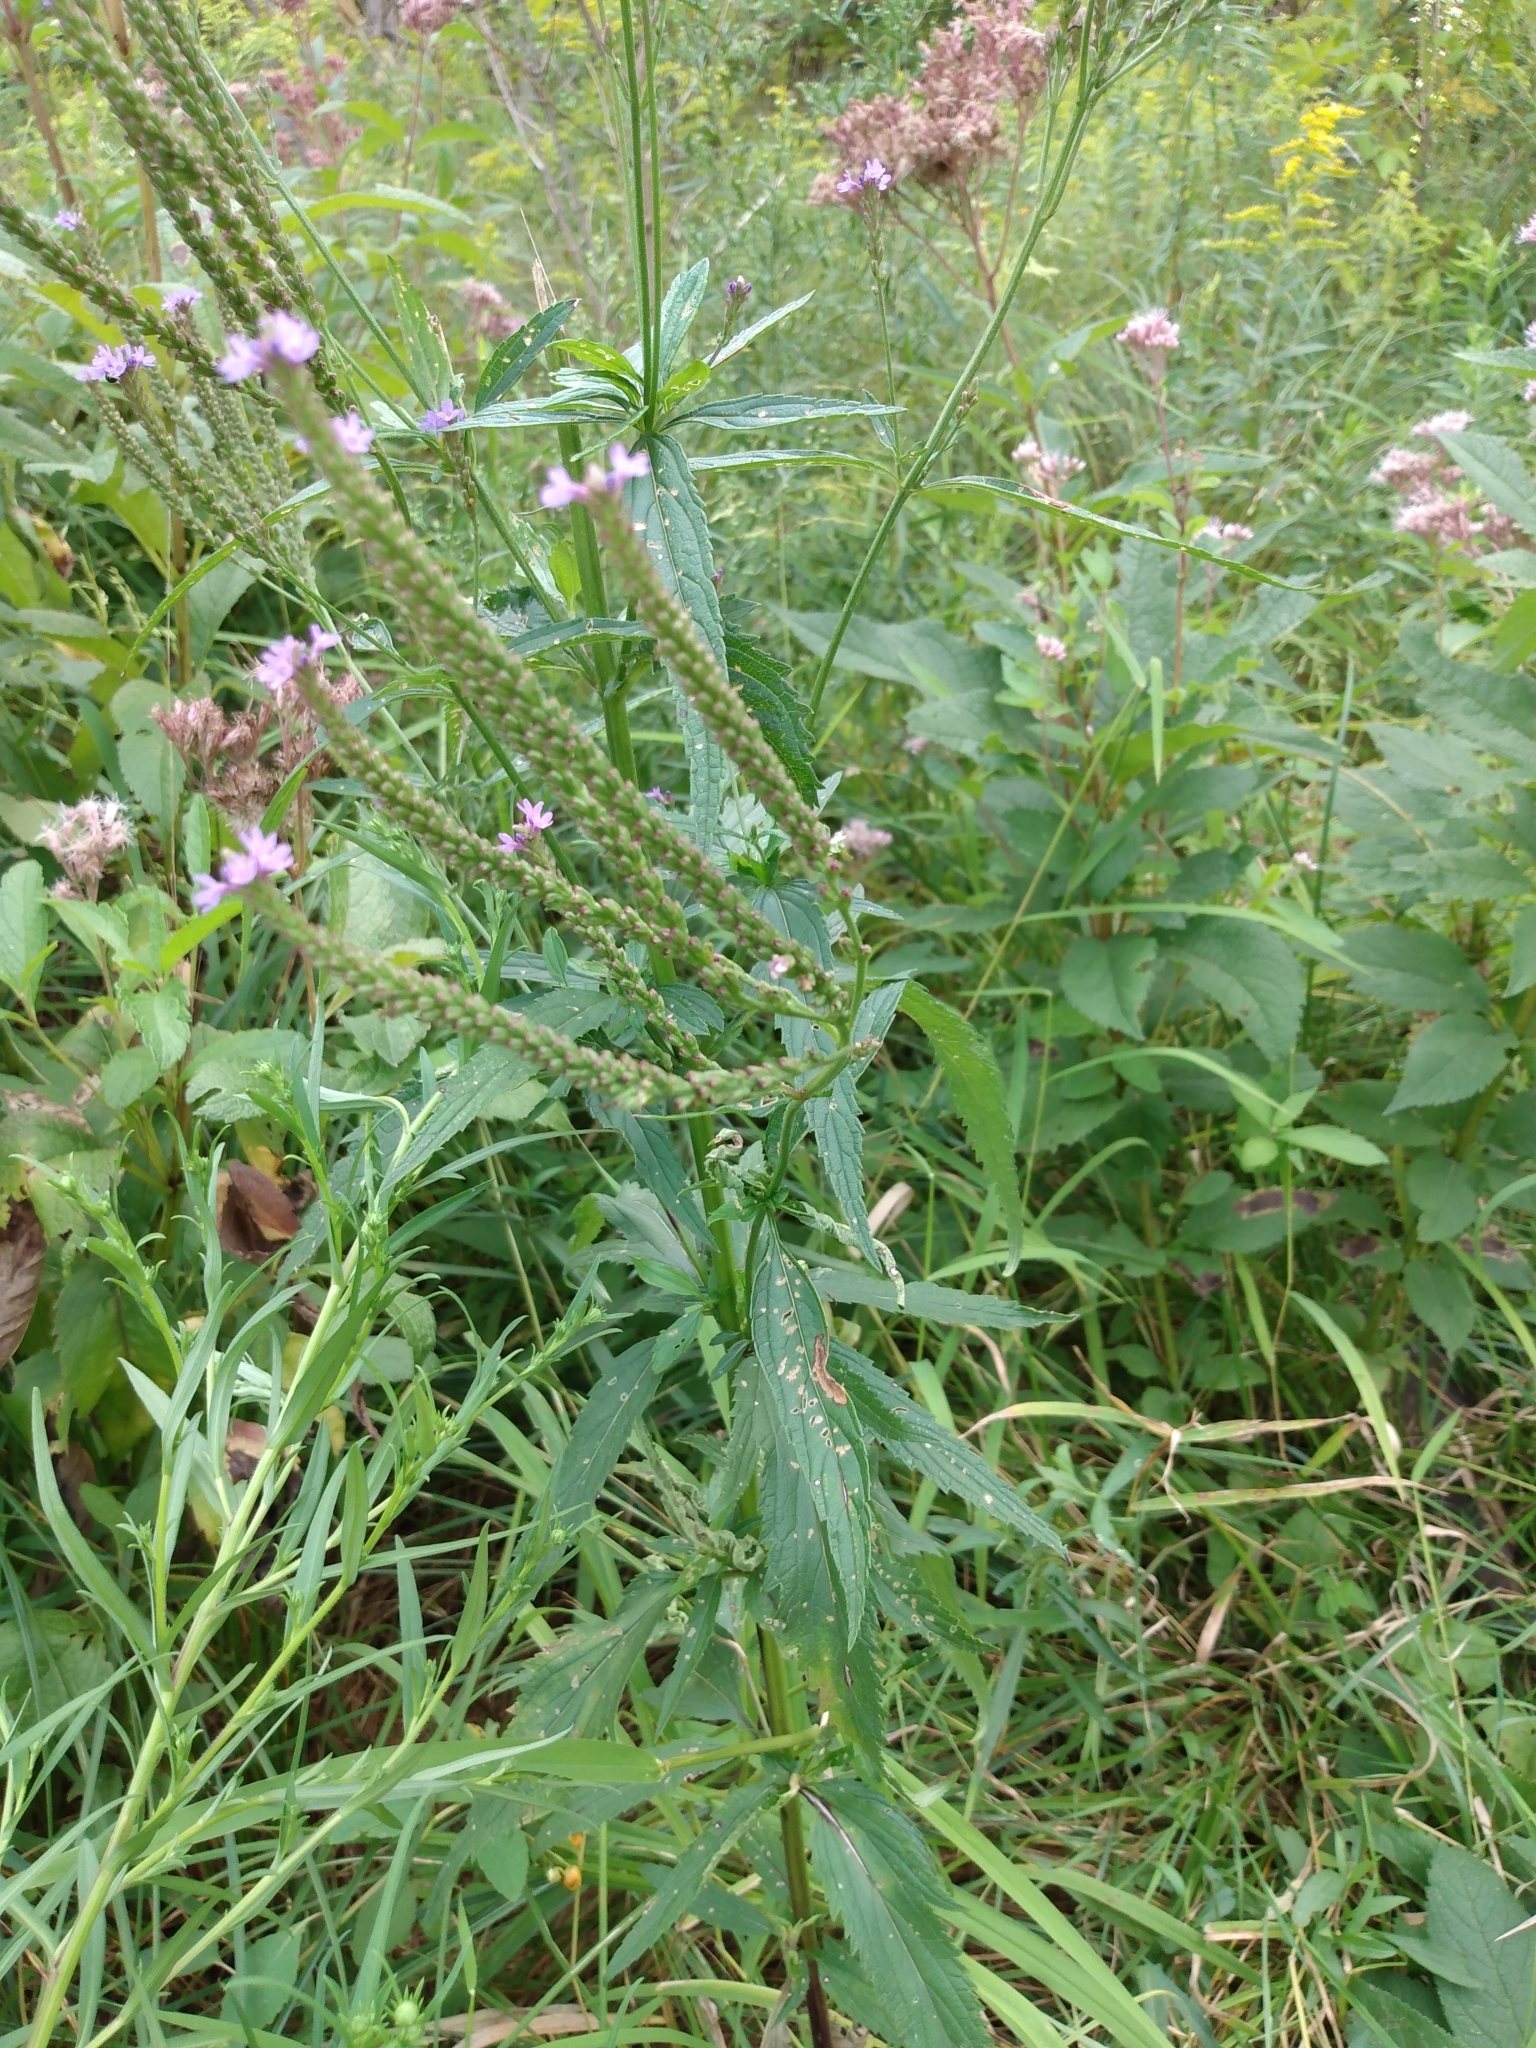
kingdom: Plantae
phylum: Tracheophyta
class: Magnoliopsida
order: Lamiales
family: Verbenaceae
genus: Verbena
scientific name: Verbena hastata
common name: American blue vervain
